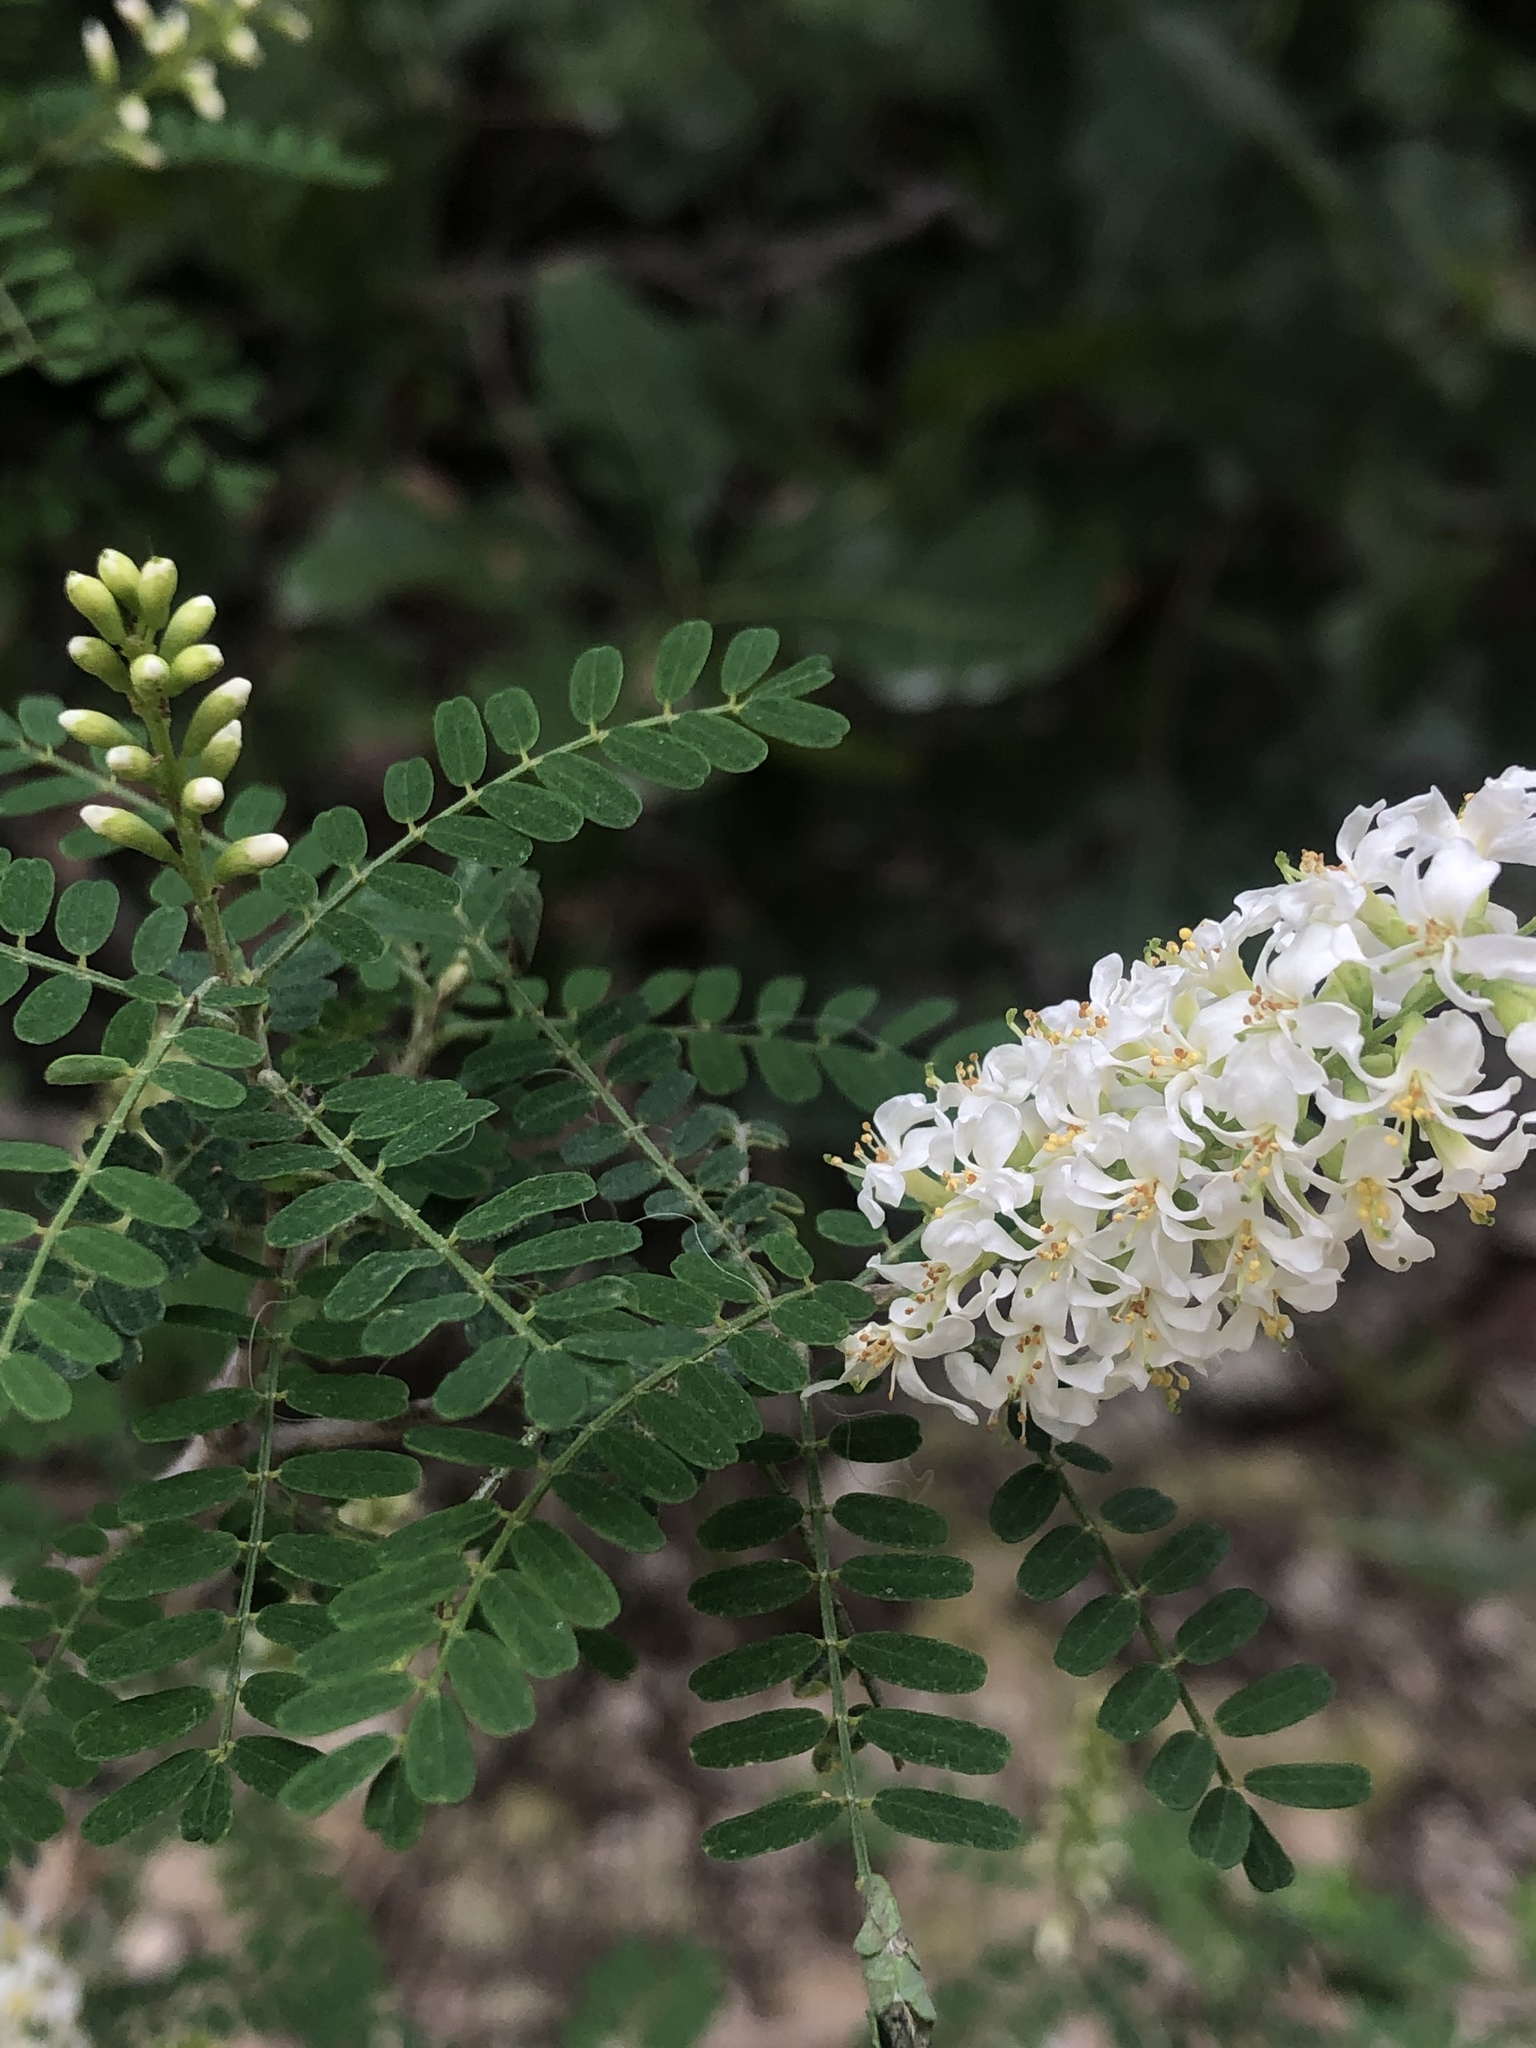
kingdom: Plantae
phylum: Tracheophyta
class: Magnoliopsida
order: Fabales
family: Fabaceae
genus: Eysenhardtia
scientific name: Eysenhardtia texana
